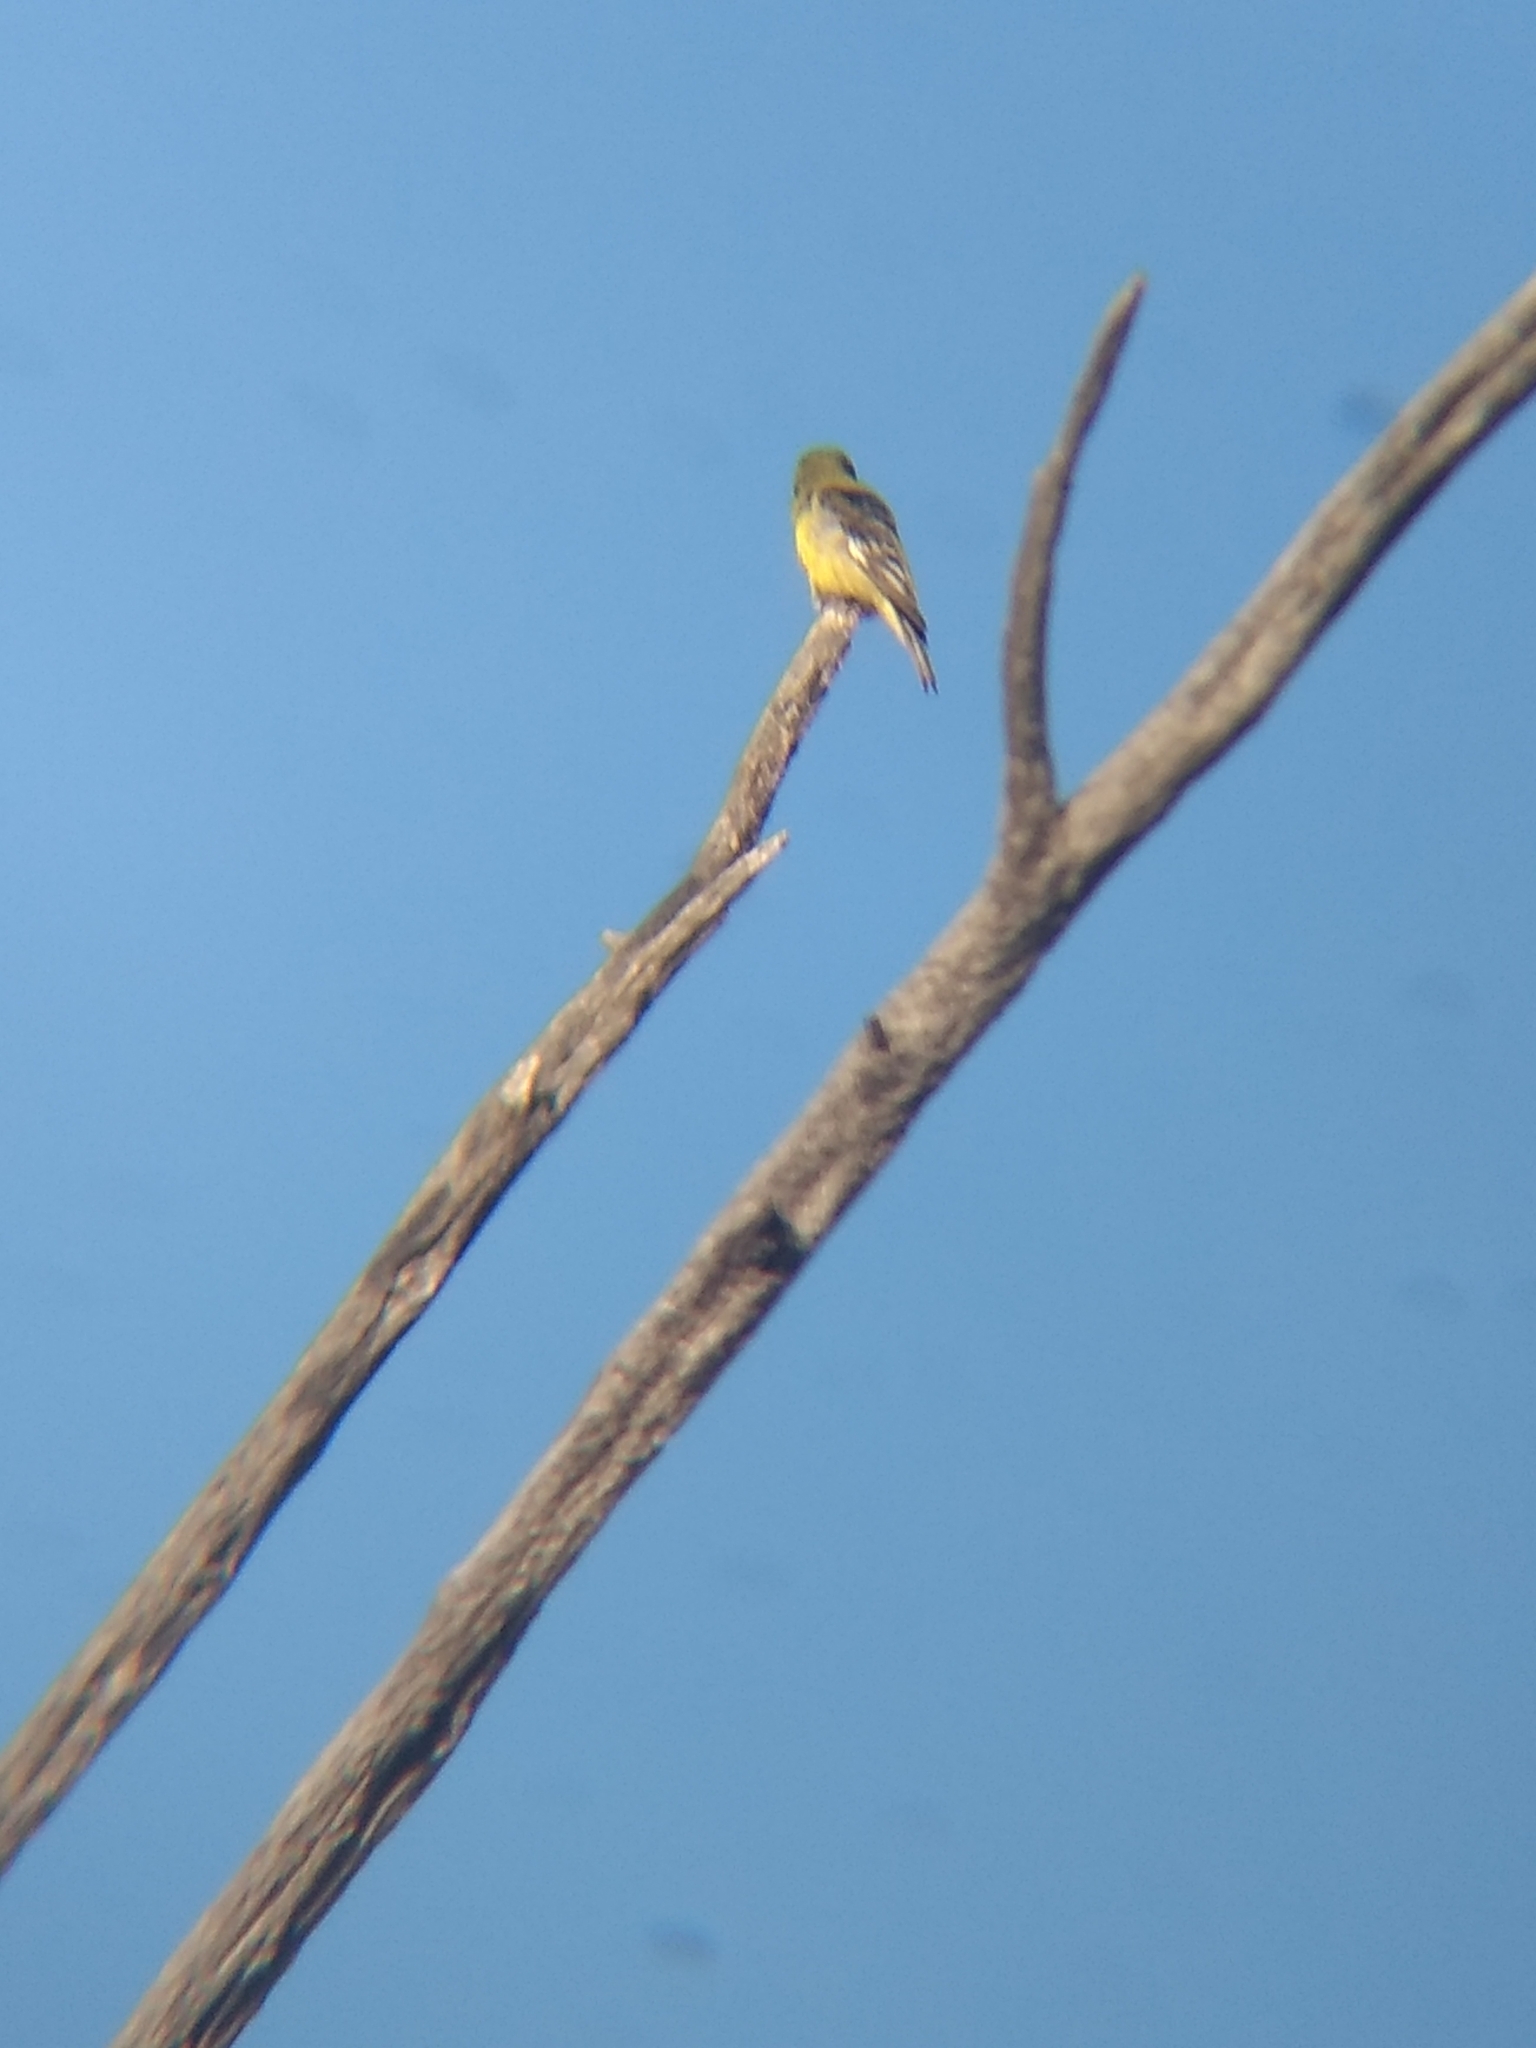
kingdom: Animalia
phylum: Chordata
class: Aves
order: Passeriformes
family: Fringillidae
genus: Spinus
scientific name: Spinus psaltria
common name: Lesser goldfinch
